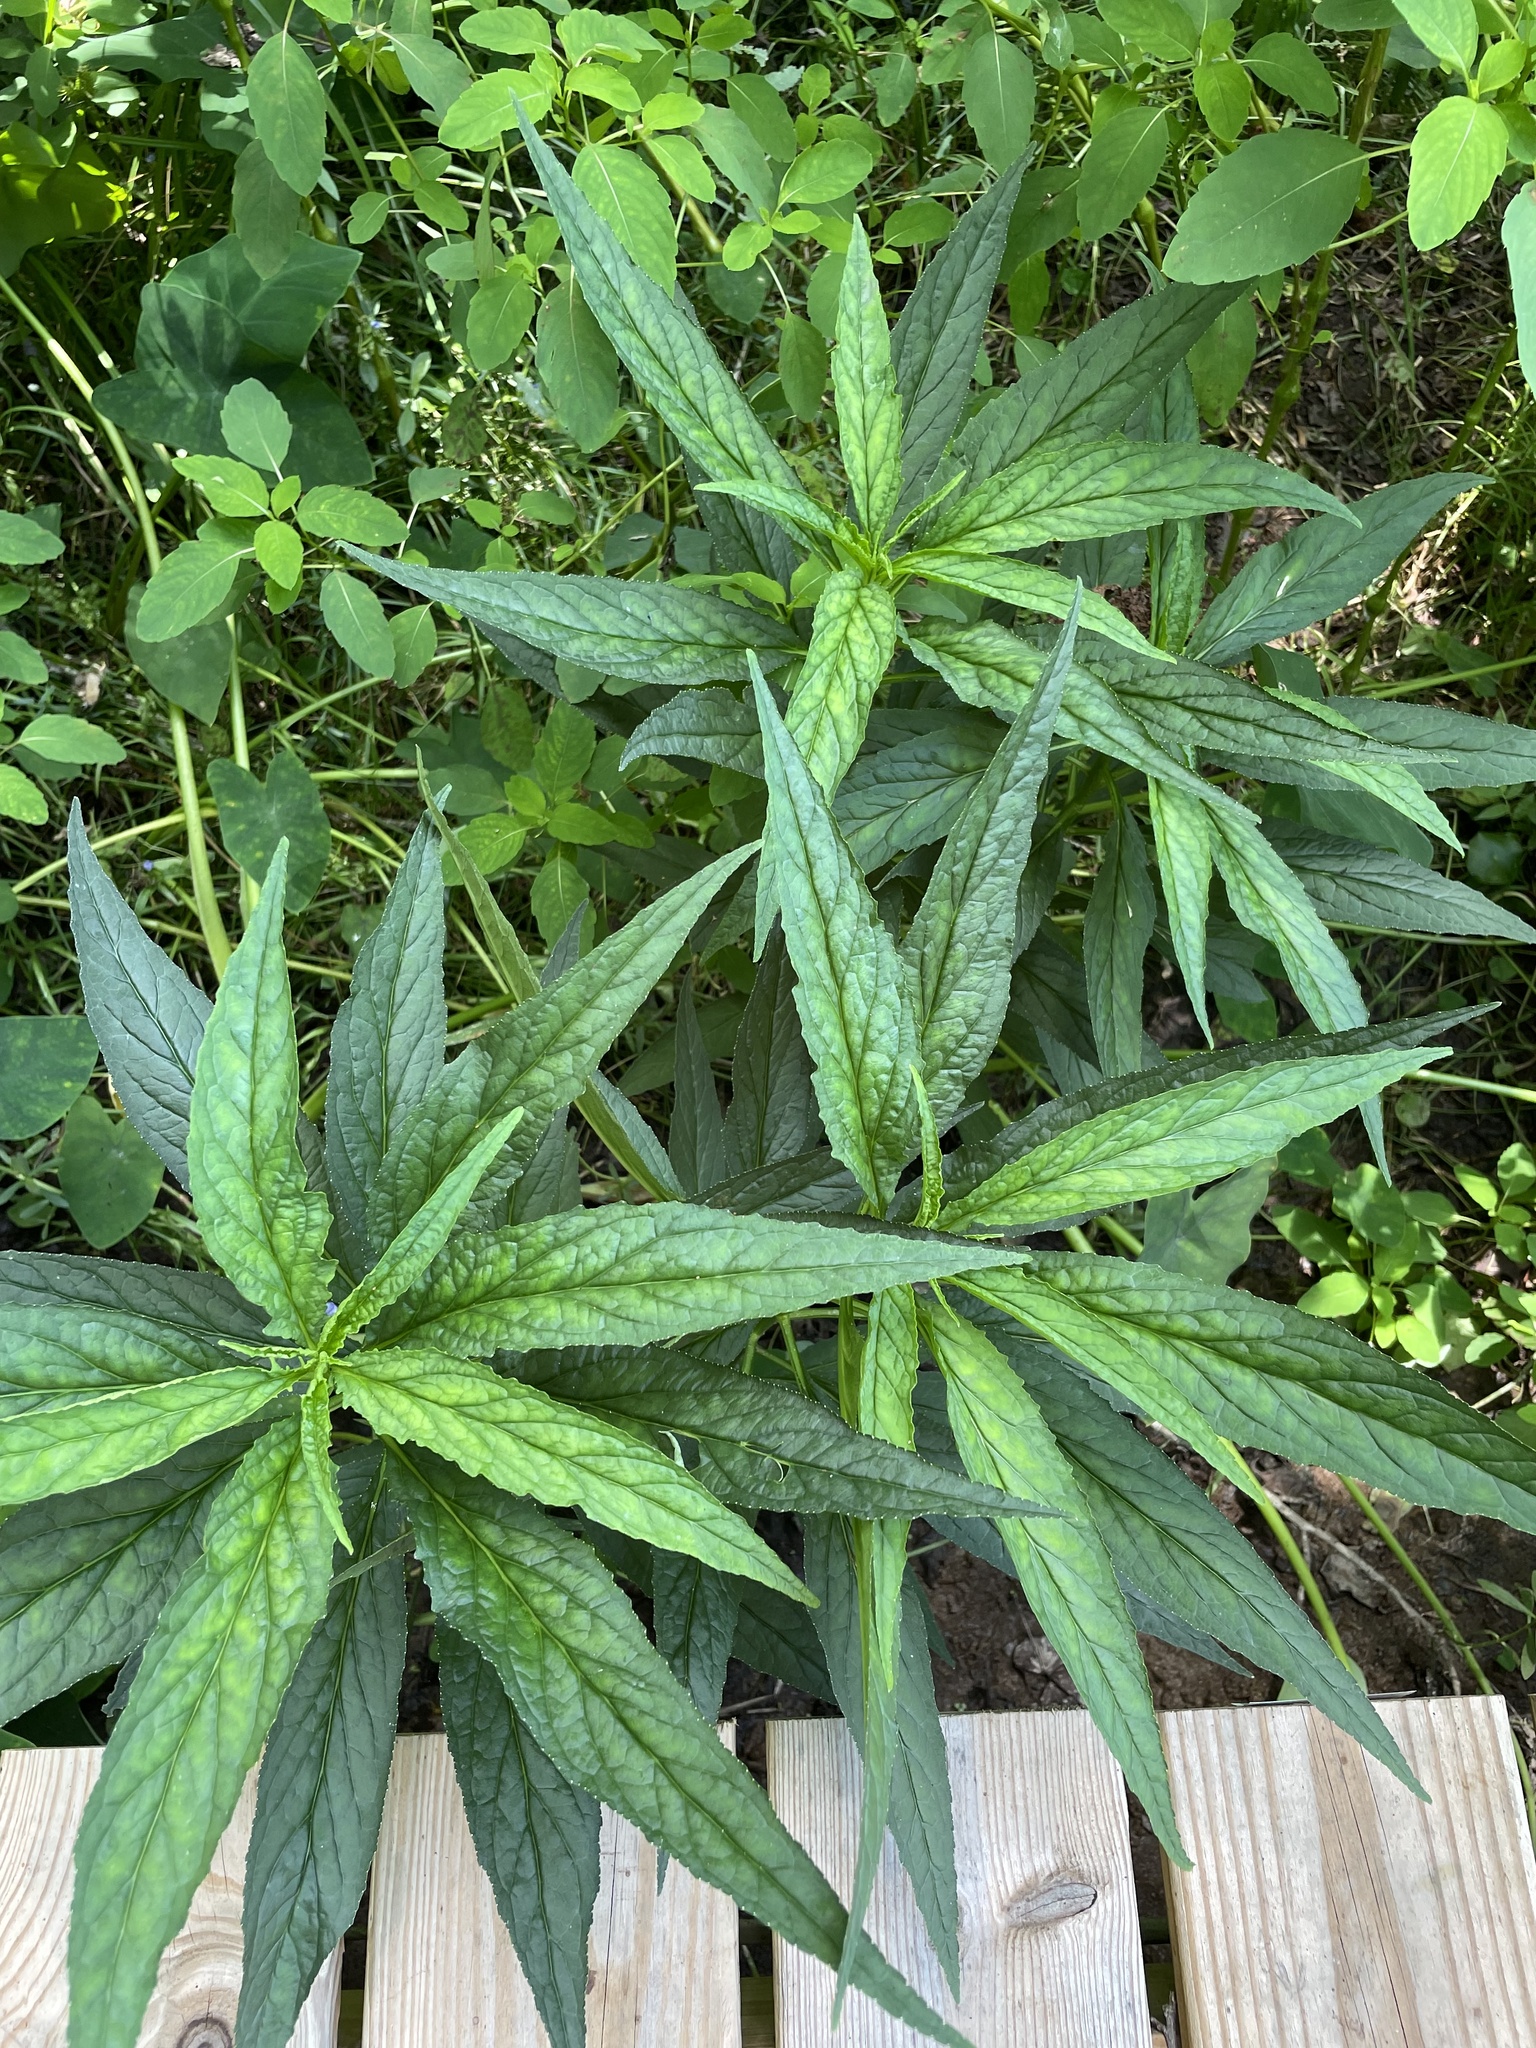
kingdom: Plantae
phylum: Tracheophyta
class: Magnoliopsida
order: Asterales
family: Campanulaceae
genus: Lobelia
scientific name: Lobelia cardinalis
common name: Cardinal flower
